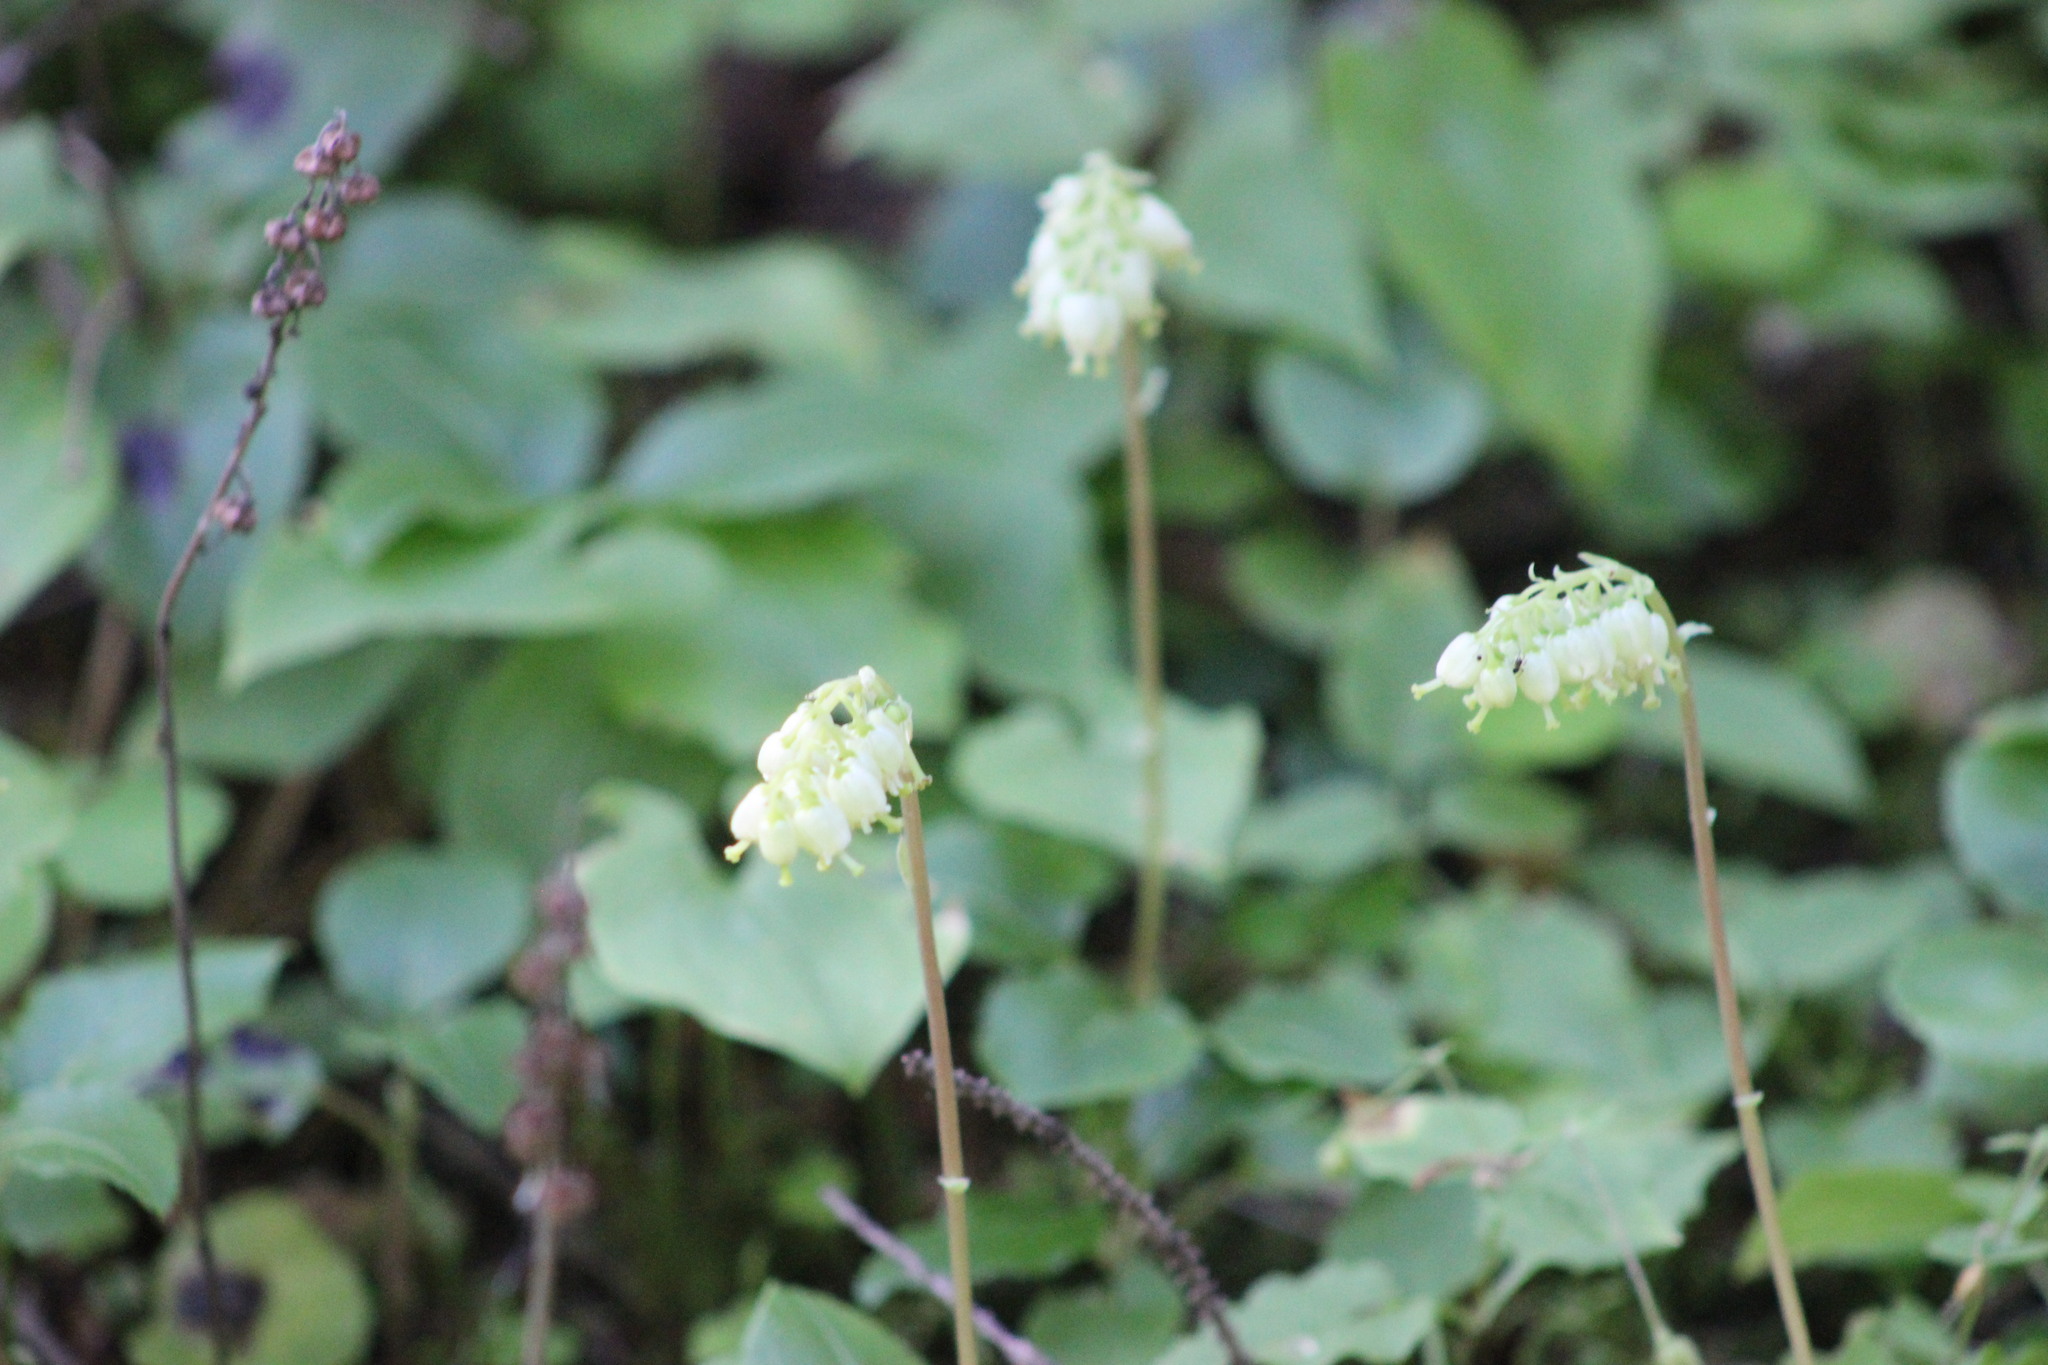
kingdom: Plantae
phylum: Tracheophyta
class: Magnoliopsida
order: Ericales
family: Ericaceae
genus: Orthilia
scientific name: Orthilia secunda
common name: One-sided orthilia
